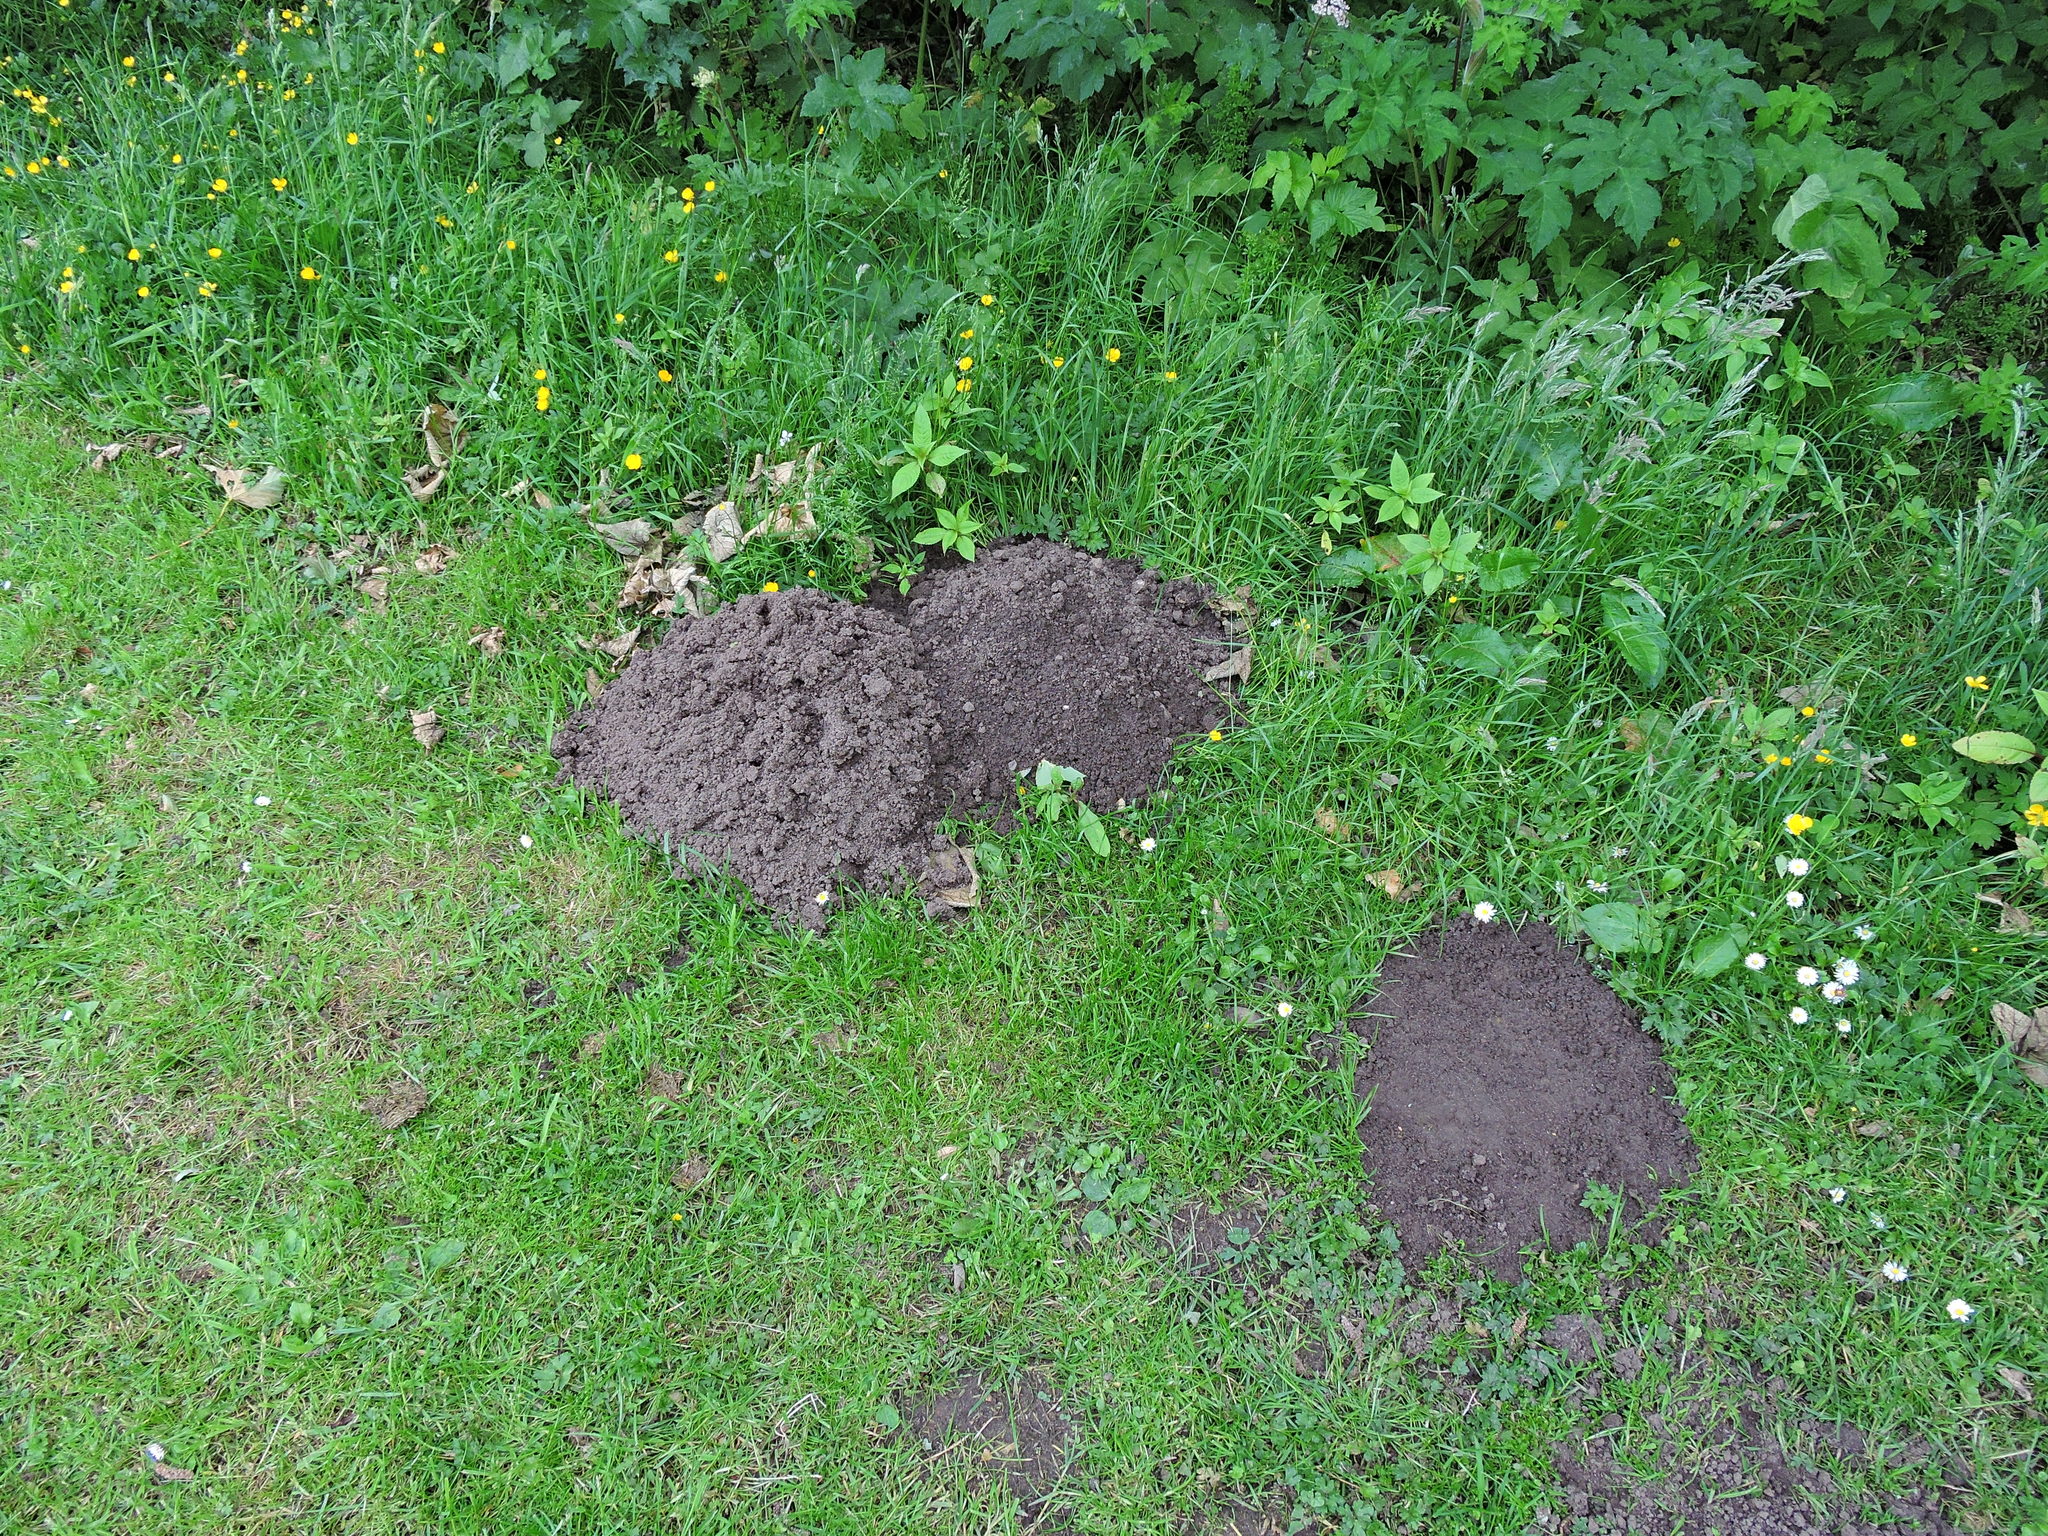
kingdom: Animalia
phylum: Chordata
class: Mammalia
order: Soricomorpha
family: Talpidae
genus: Talpa
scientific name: Talpa europaea
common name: European mole
